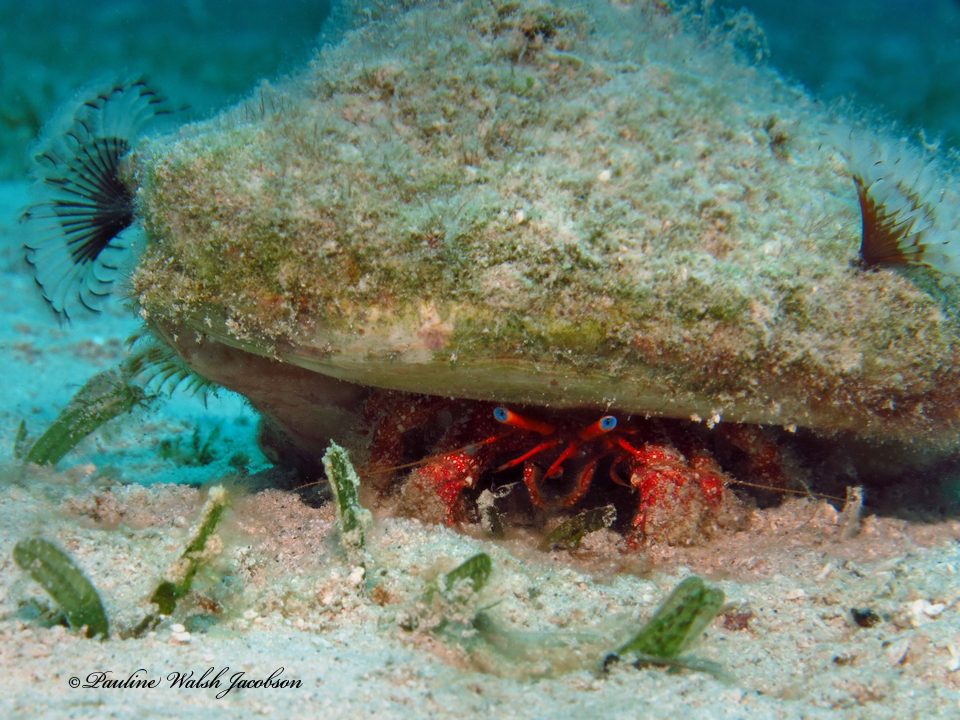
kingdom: Animalia
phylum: Arthropoda
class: Malacostraca
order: Decapoda
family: Diogenidae
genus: Paguristes
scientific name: Paguristes sericeus
